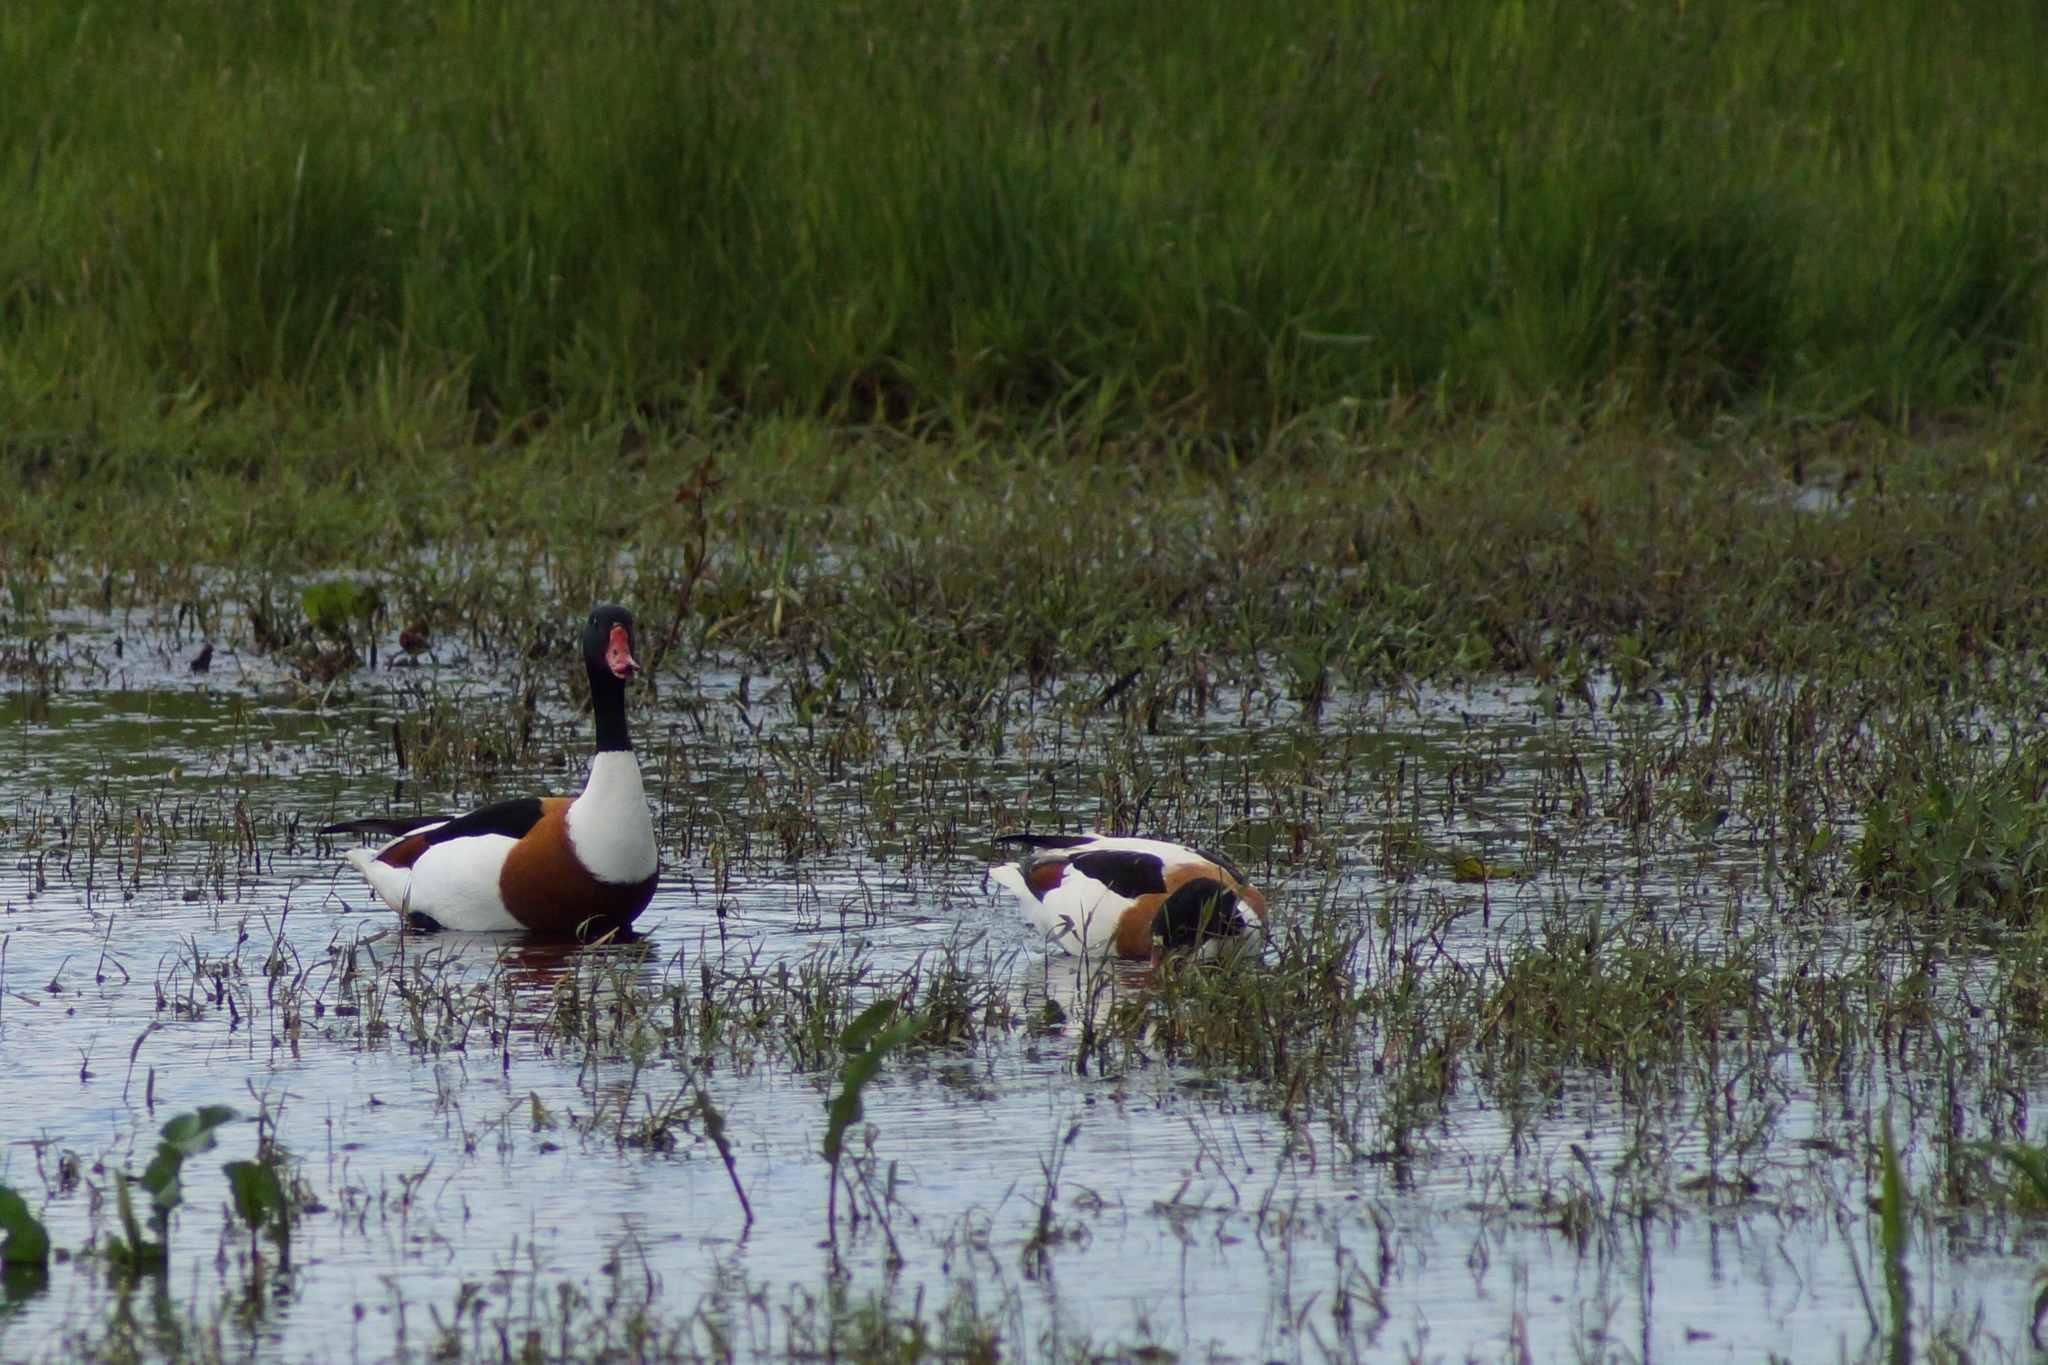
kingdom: Animalia
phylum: Chordata
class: Aves
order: Anseriformes
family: Anatidae
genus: Tadorna
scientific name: Tadorna tadorna
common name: Common shelduck
